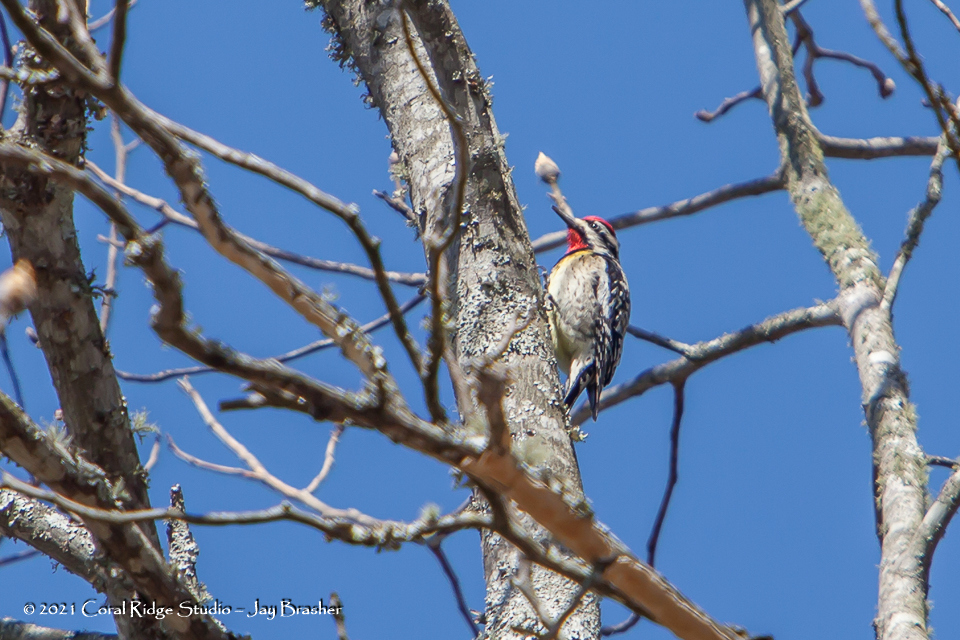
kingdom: Animalia
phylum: Chordata
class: Aves
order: Piciformes
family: Picidae
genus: Sphyrapicus
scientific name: Sphyrapicus varius
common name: Yellow-bellied sapsucker
